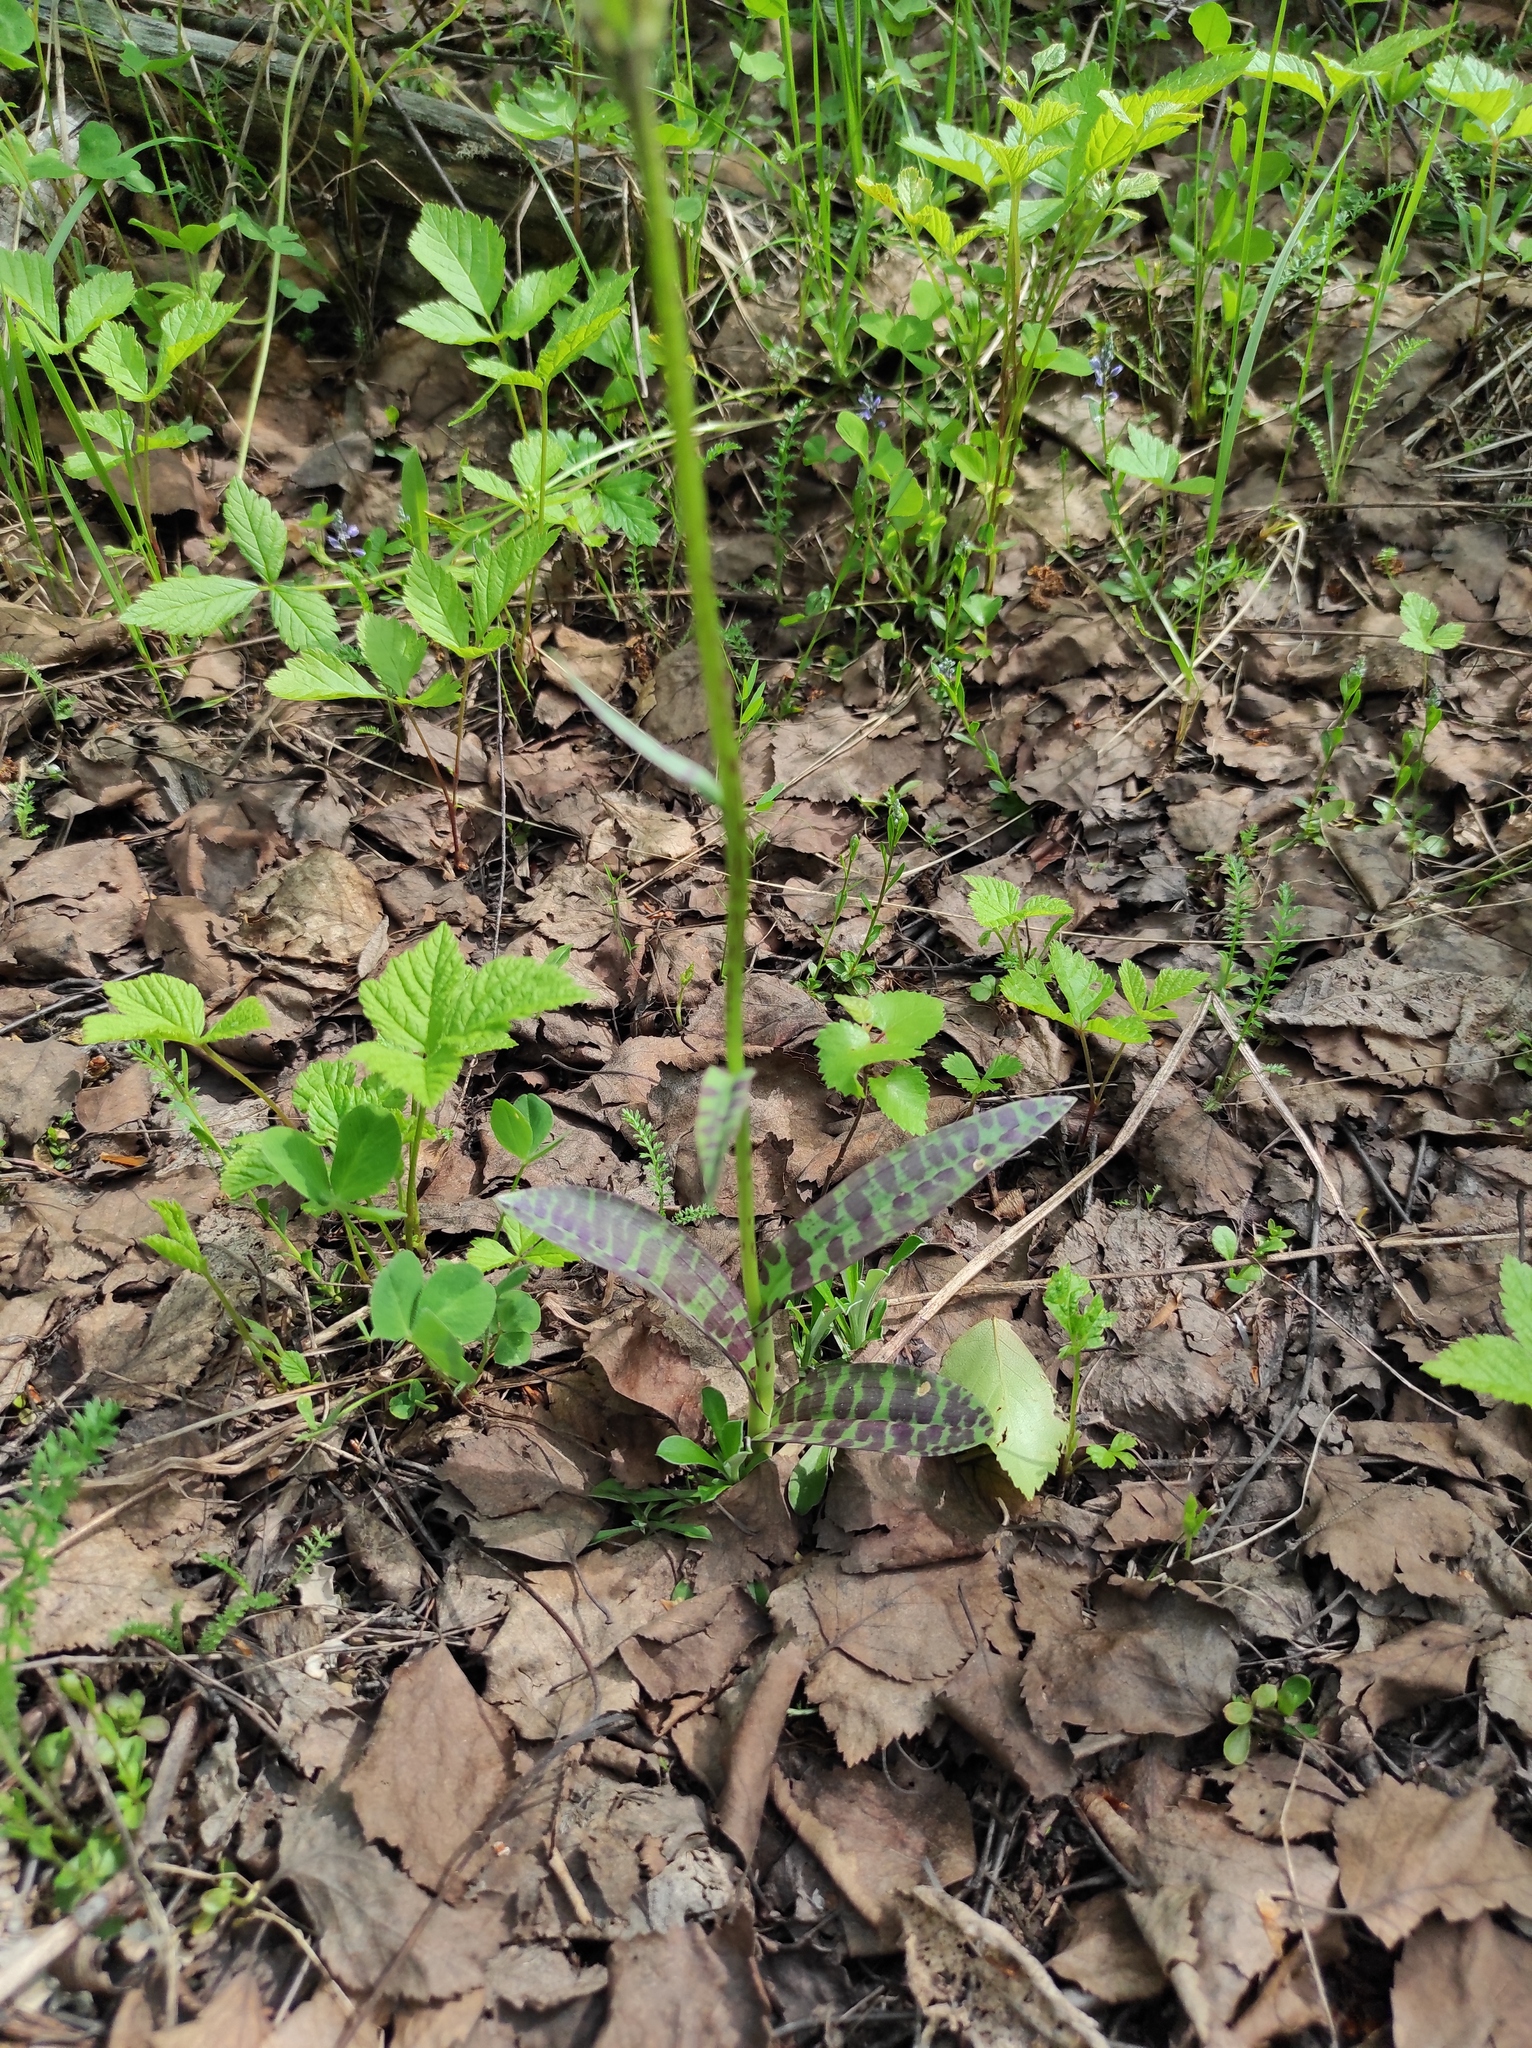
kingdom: Plantae
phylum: Tracheophyta
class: Liliopsida
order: Asparagales
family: Orchidaceae
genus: Dactylorhiza
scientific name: Dactylorhiza maculata
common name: Heath spotted-orchid
